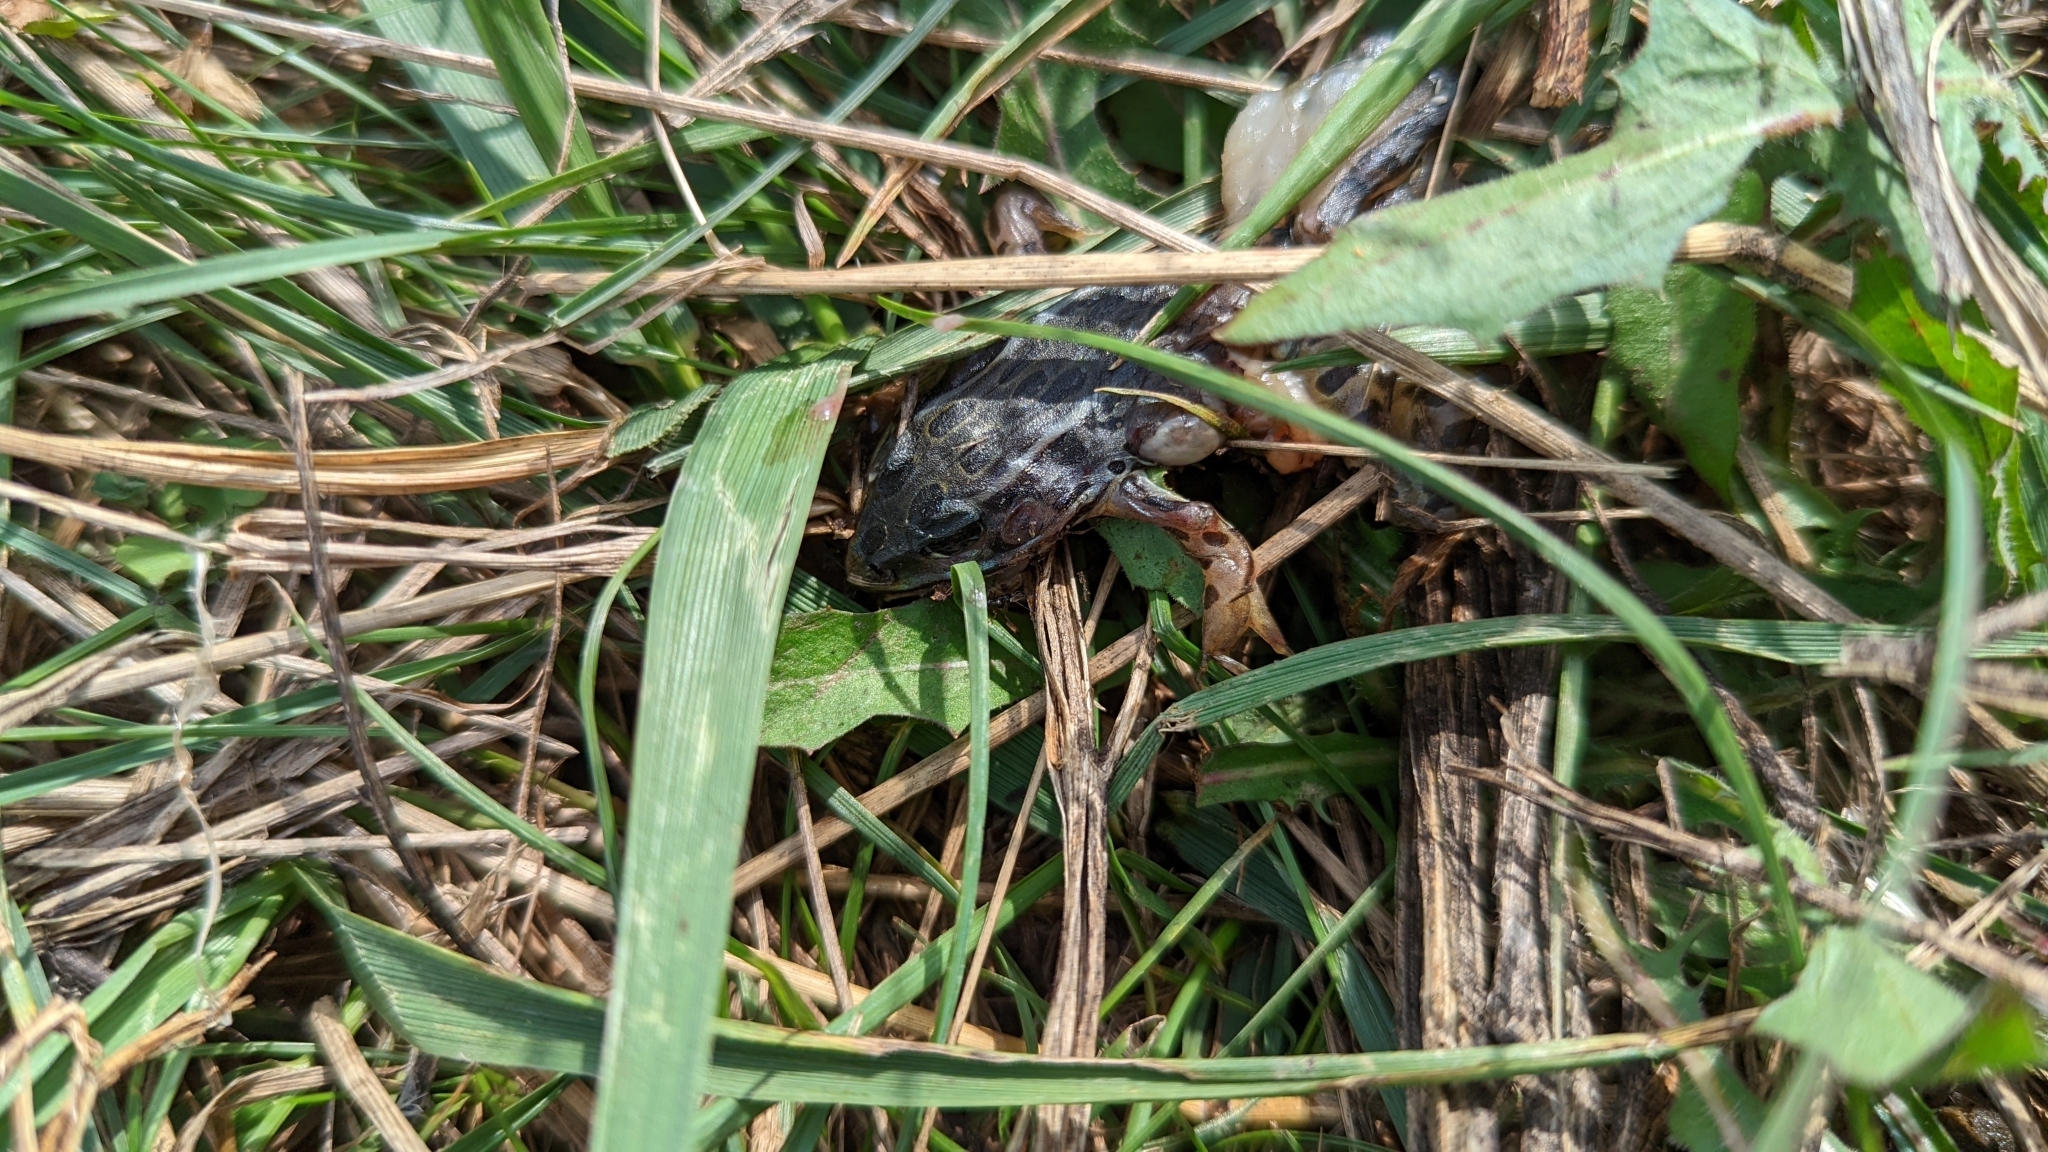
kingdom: Animalia
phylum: Chordata
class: Amphibia
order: Anura
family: Ranidae
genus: Lithobates
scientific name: Lithobates pipiens
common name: Northern leopard frog
